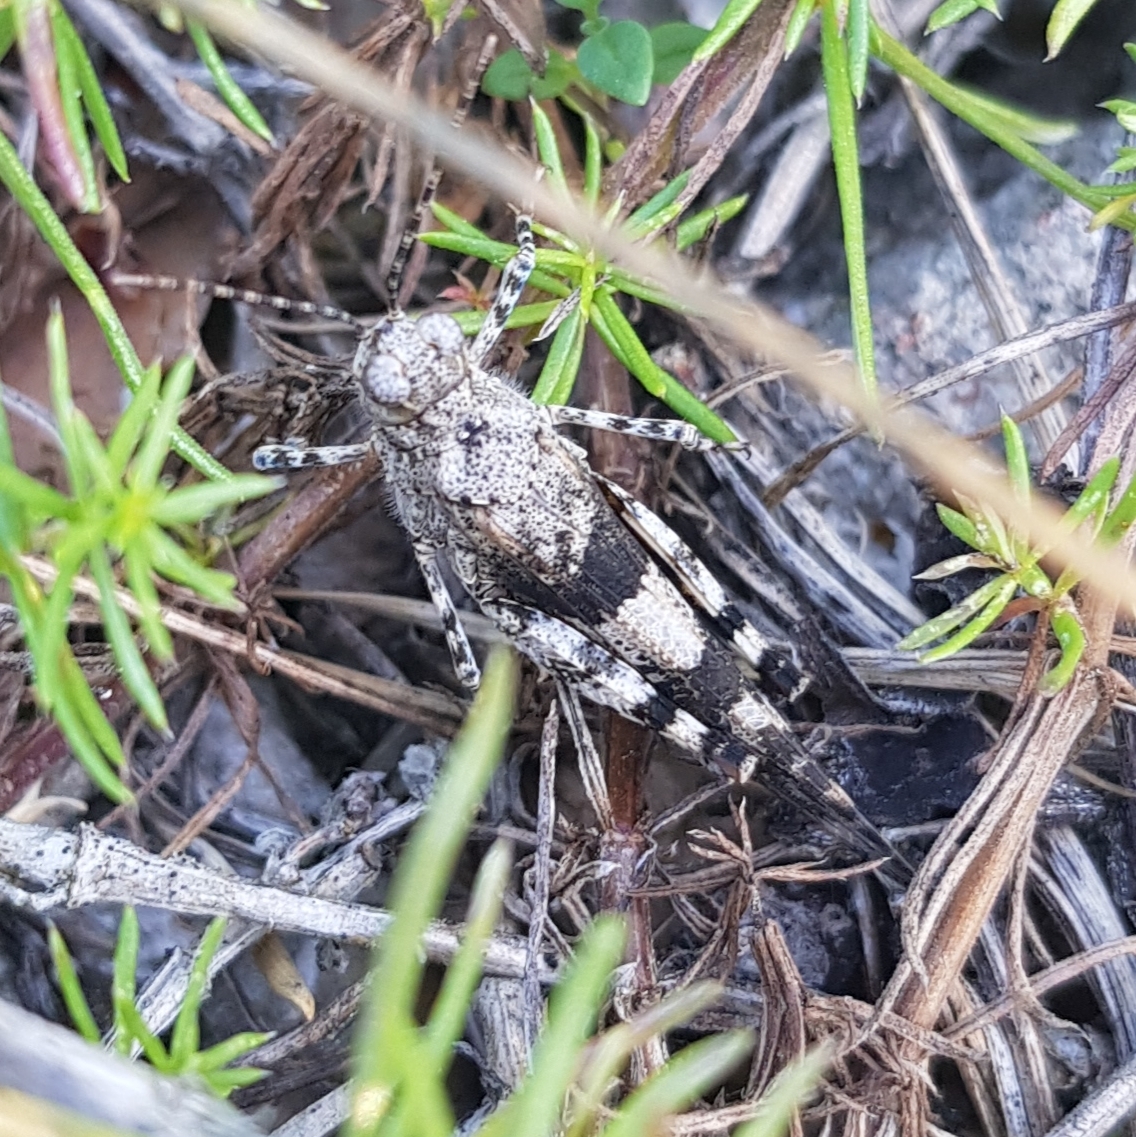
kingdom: Animalia
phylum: Arthropoda
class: Insecta
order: Orthoptera
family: Acrididae
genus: Sphingonotus
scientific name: Sphingonotus caerulans
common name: Blue-winged locust
